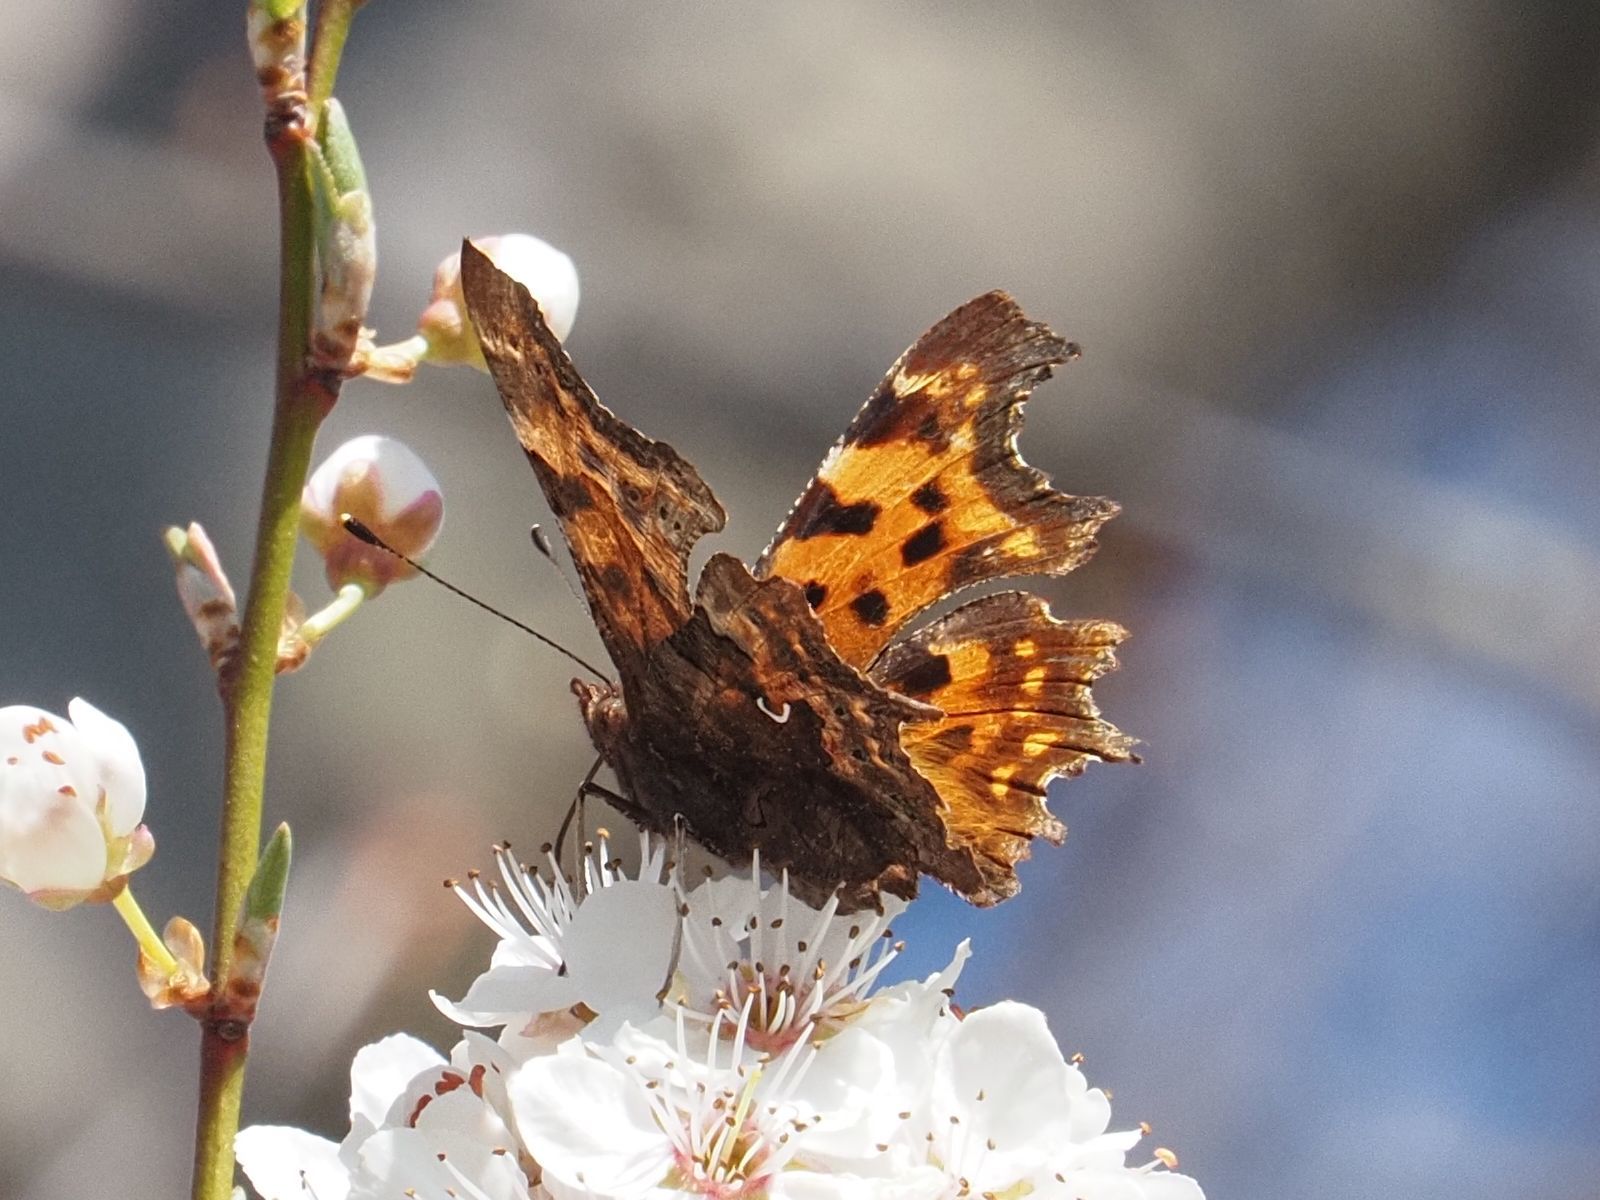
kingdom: Animalia
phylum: Arthropoda
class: Insecta
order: Lepidoptera
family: Nymphalidae
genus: Polygonia
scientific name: Polygonia c-album
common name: Comma
